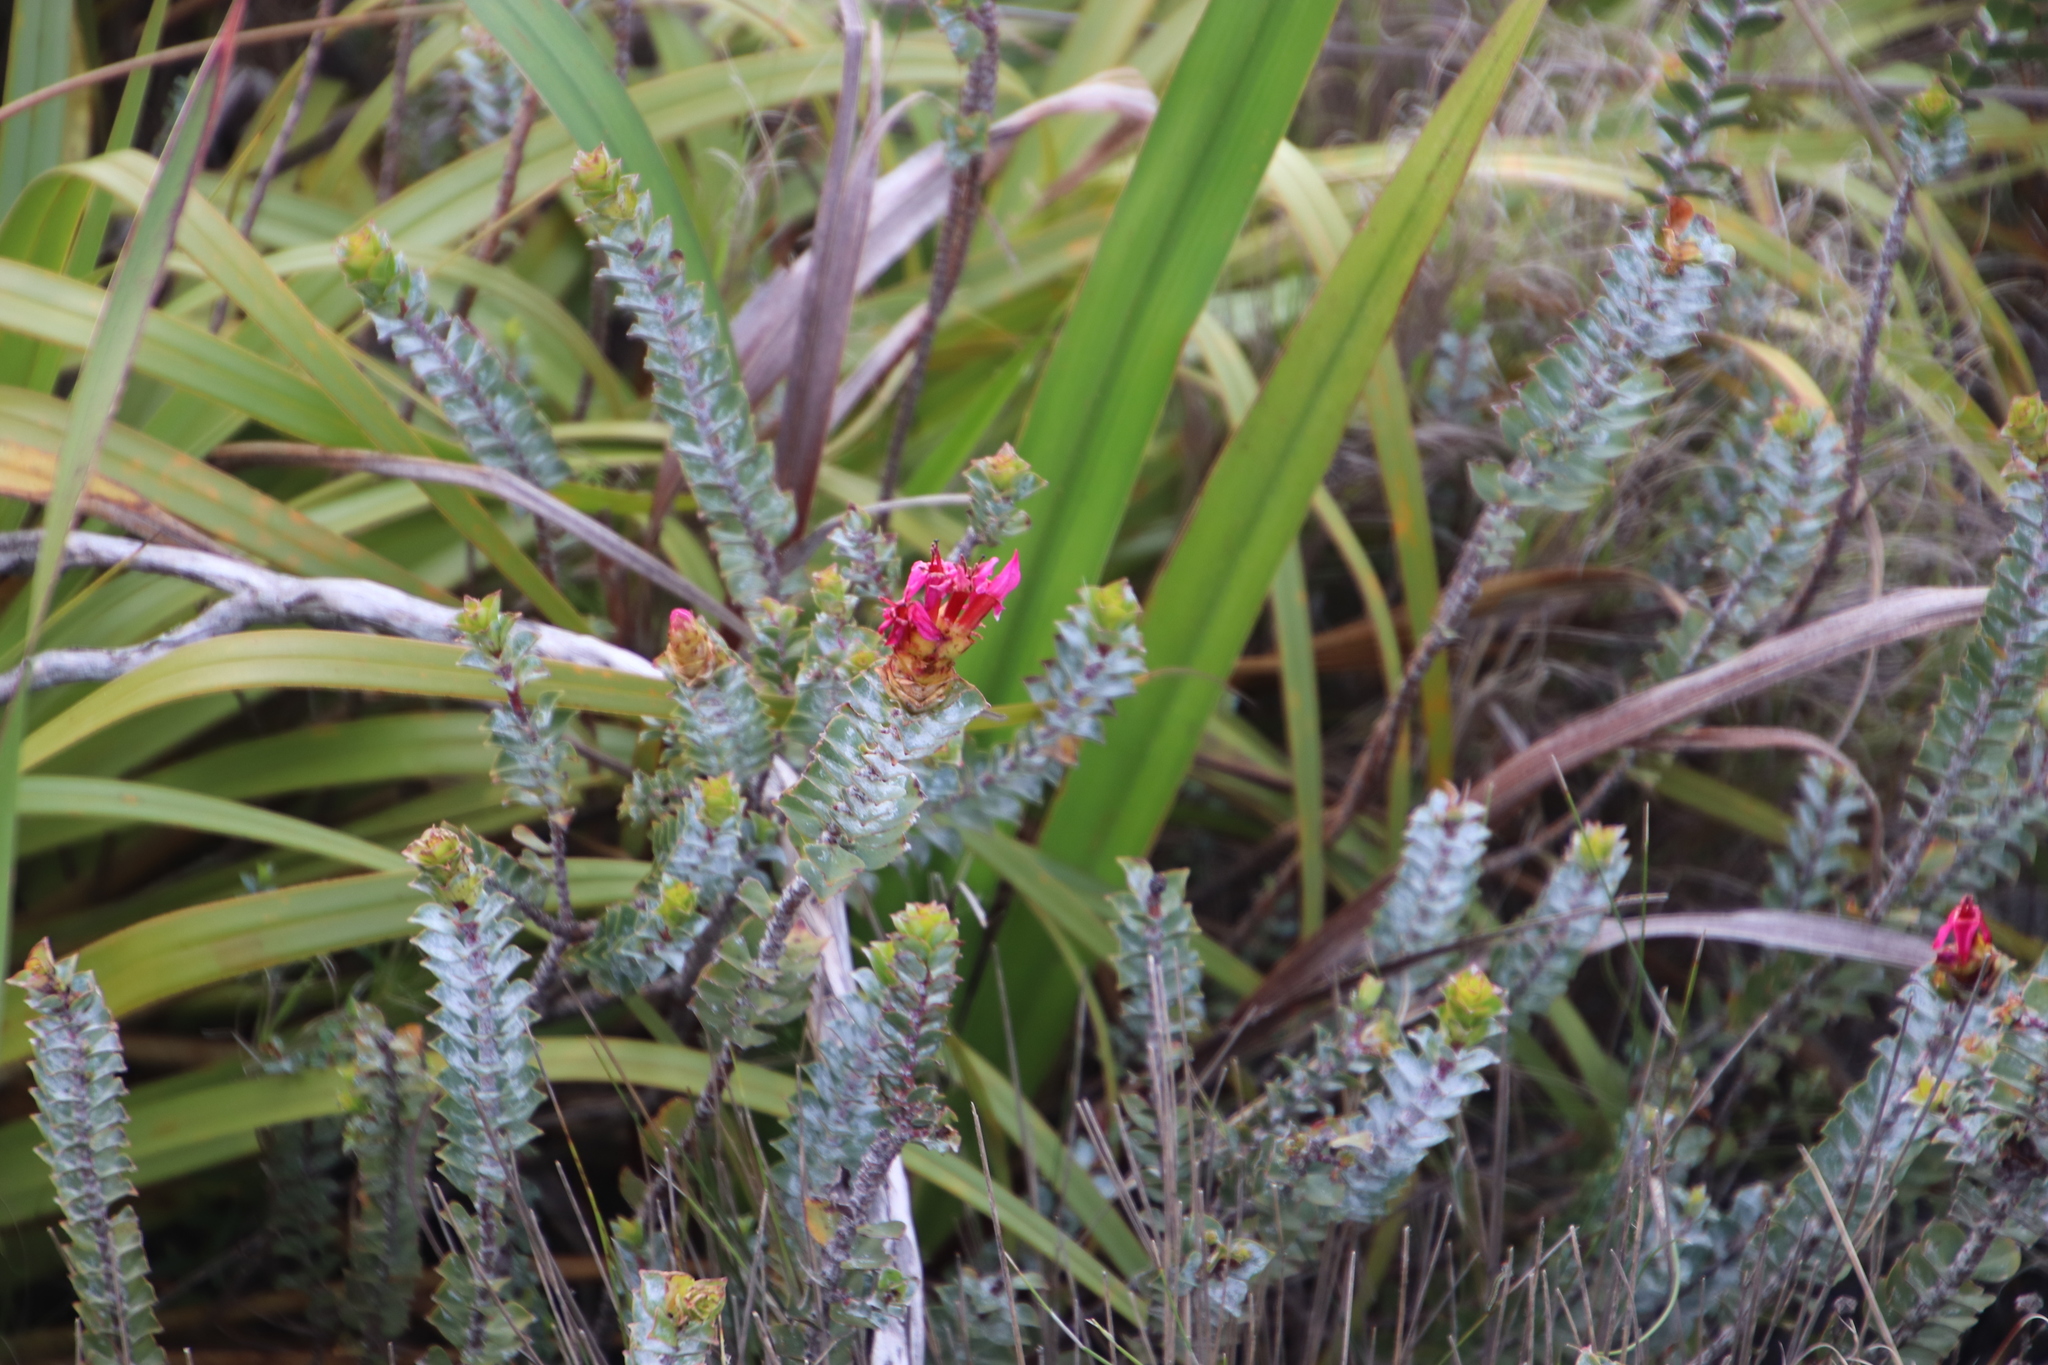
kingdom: Plantae
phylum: Tracheophyta
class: Magnoliopsida
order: Myrtales
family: Penaeaceae
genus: Saltera
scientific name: Saltera sarcocolla
